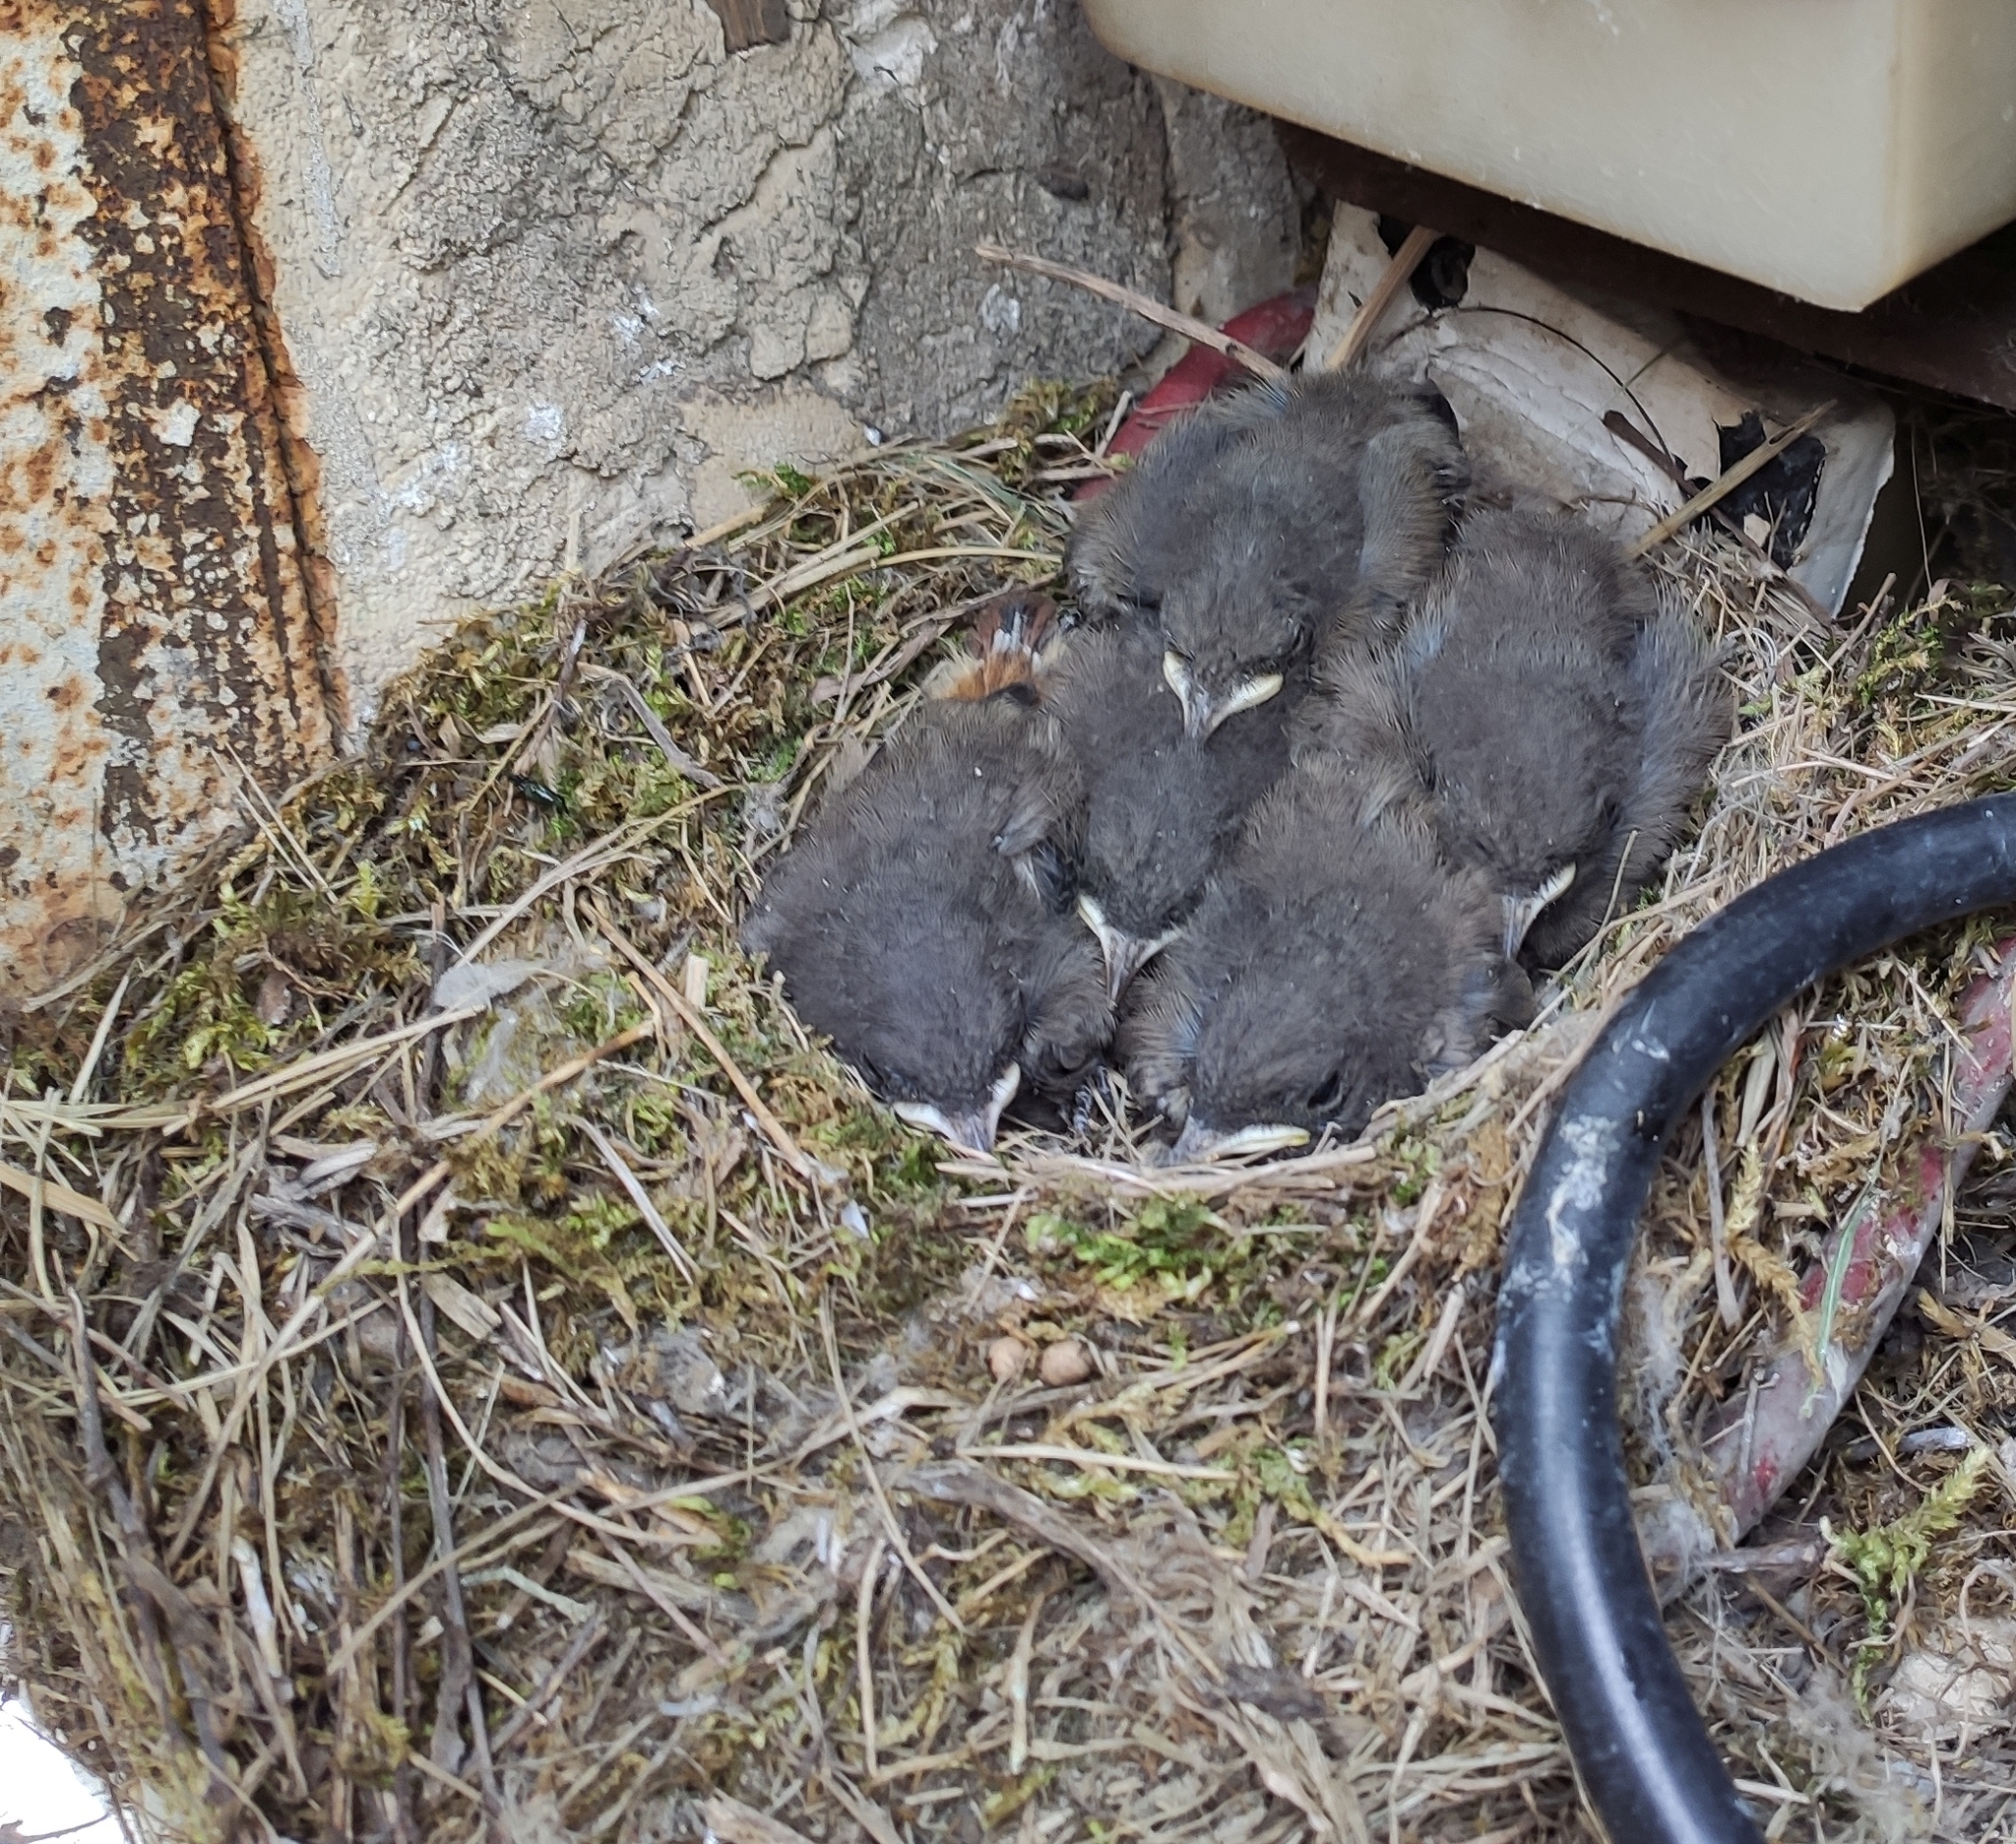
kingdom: Animalia
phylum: Chordata
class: Aves
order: Passeriformes
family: Muscicapidae
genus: Phoenicurus
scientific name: Phoenicurus ochruros
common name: Black redstart
